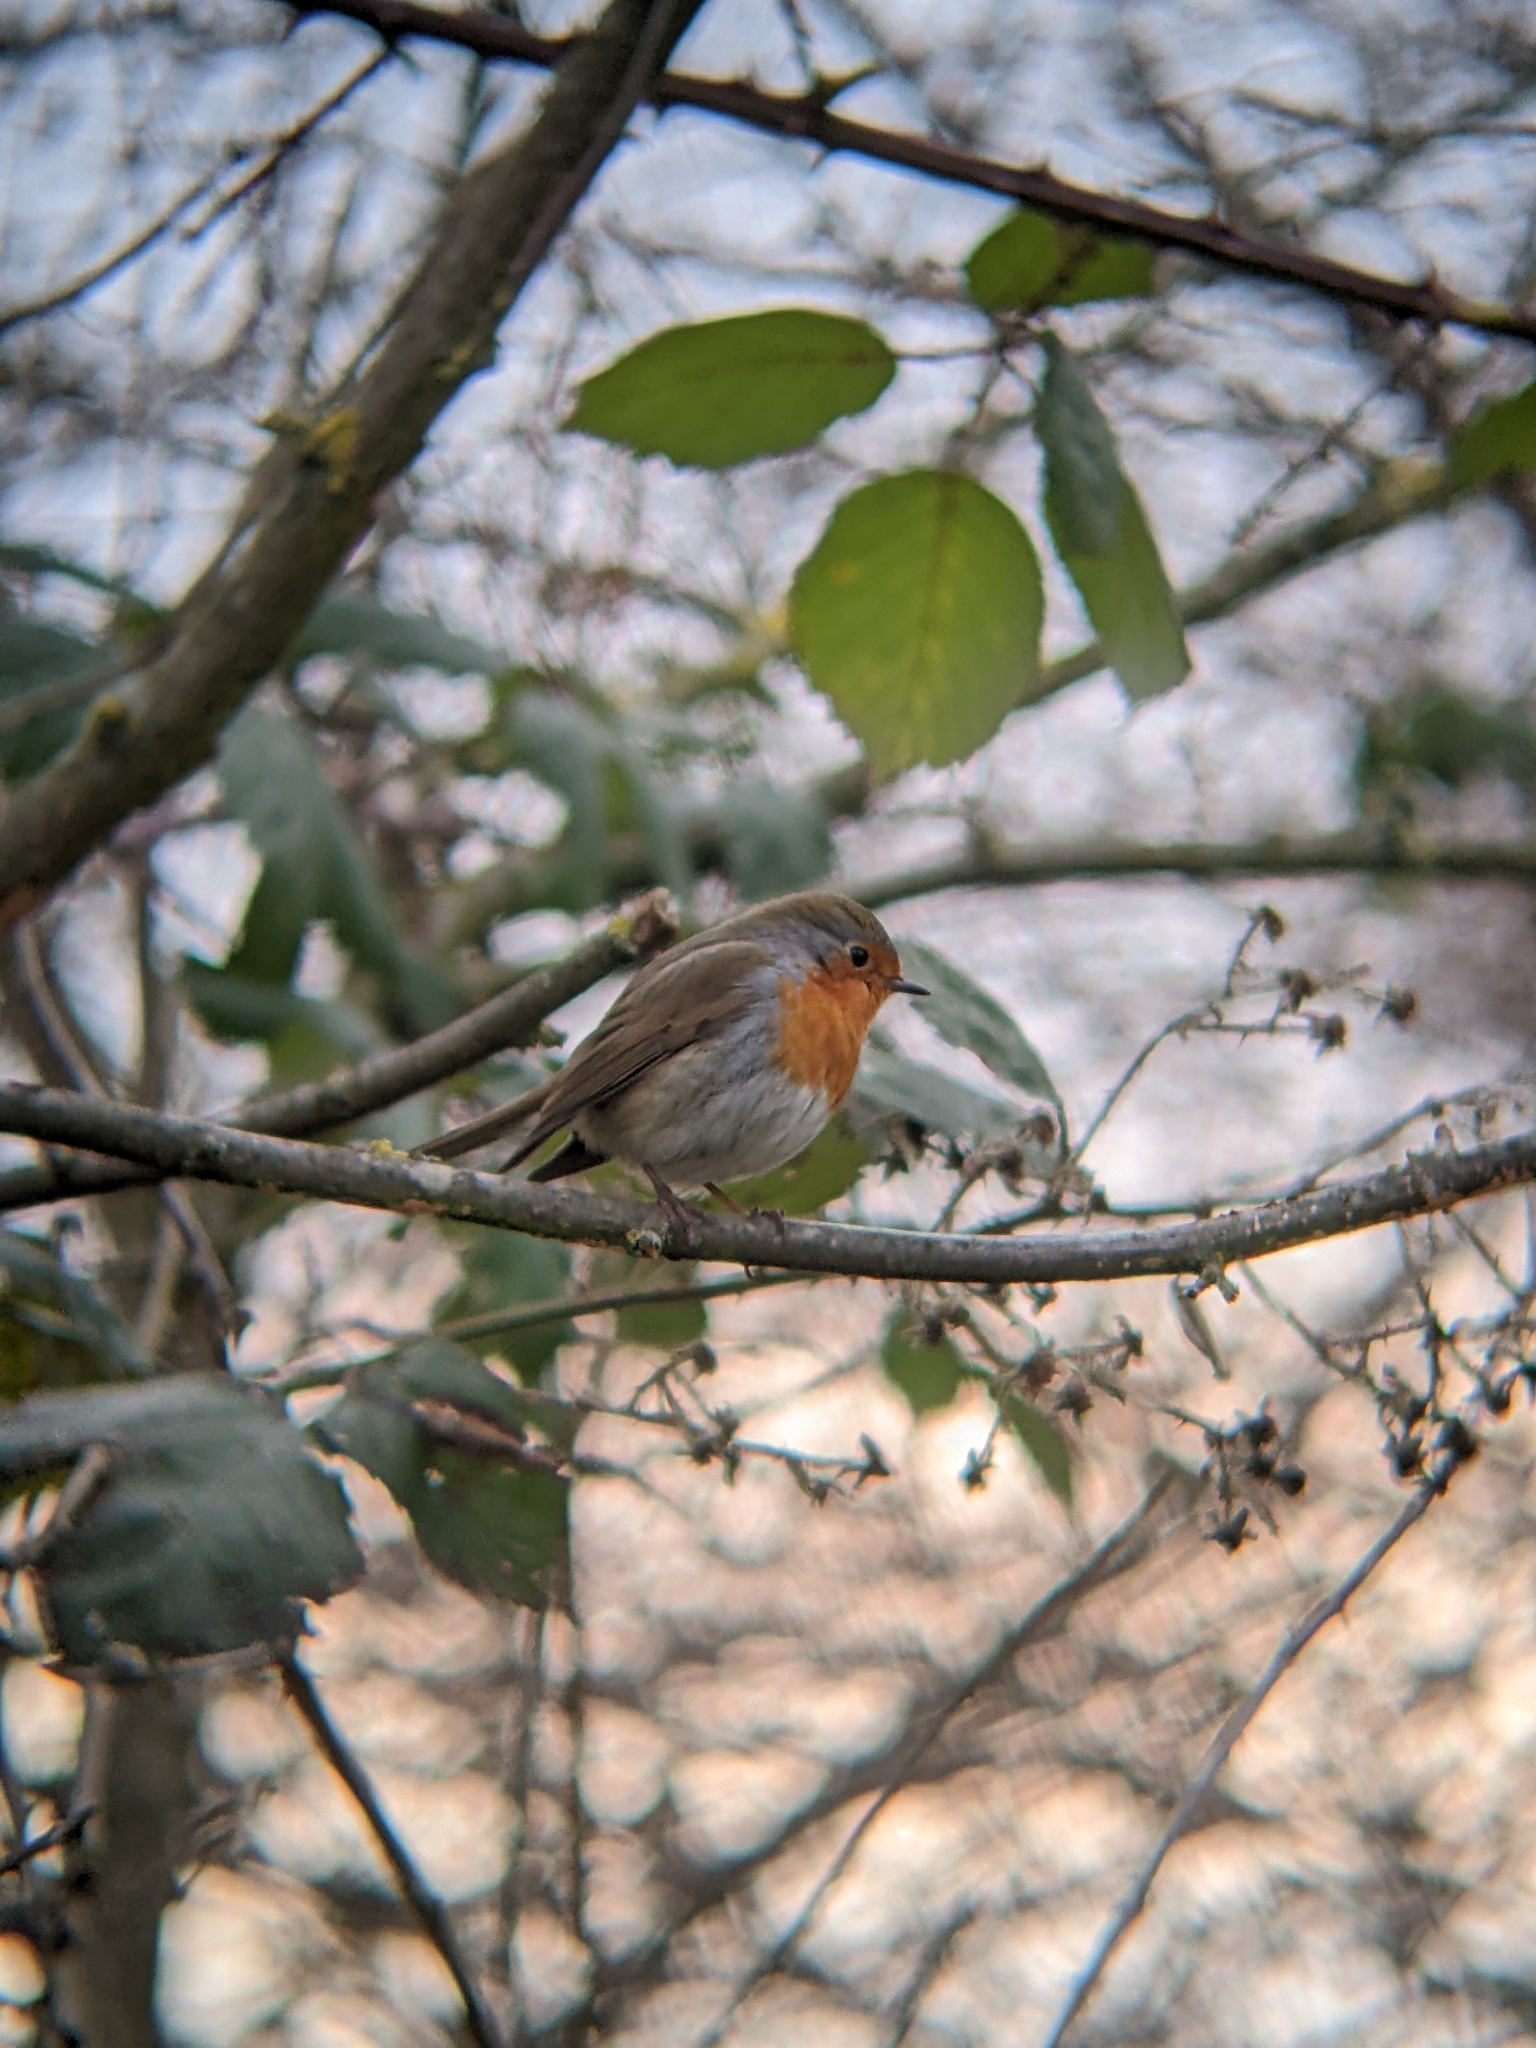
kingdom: Animalia
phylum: Chordata
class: Aves
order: Passeriformes
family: Muscicapidae
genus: Erithacus
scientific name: Erithacus rubecula
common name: European robin
